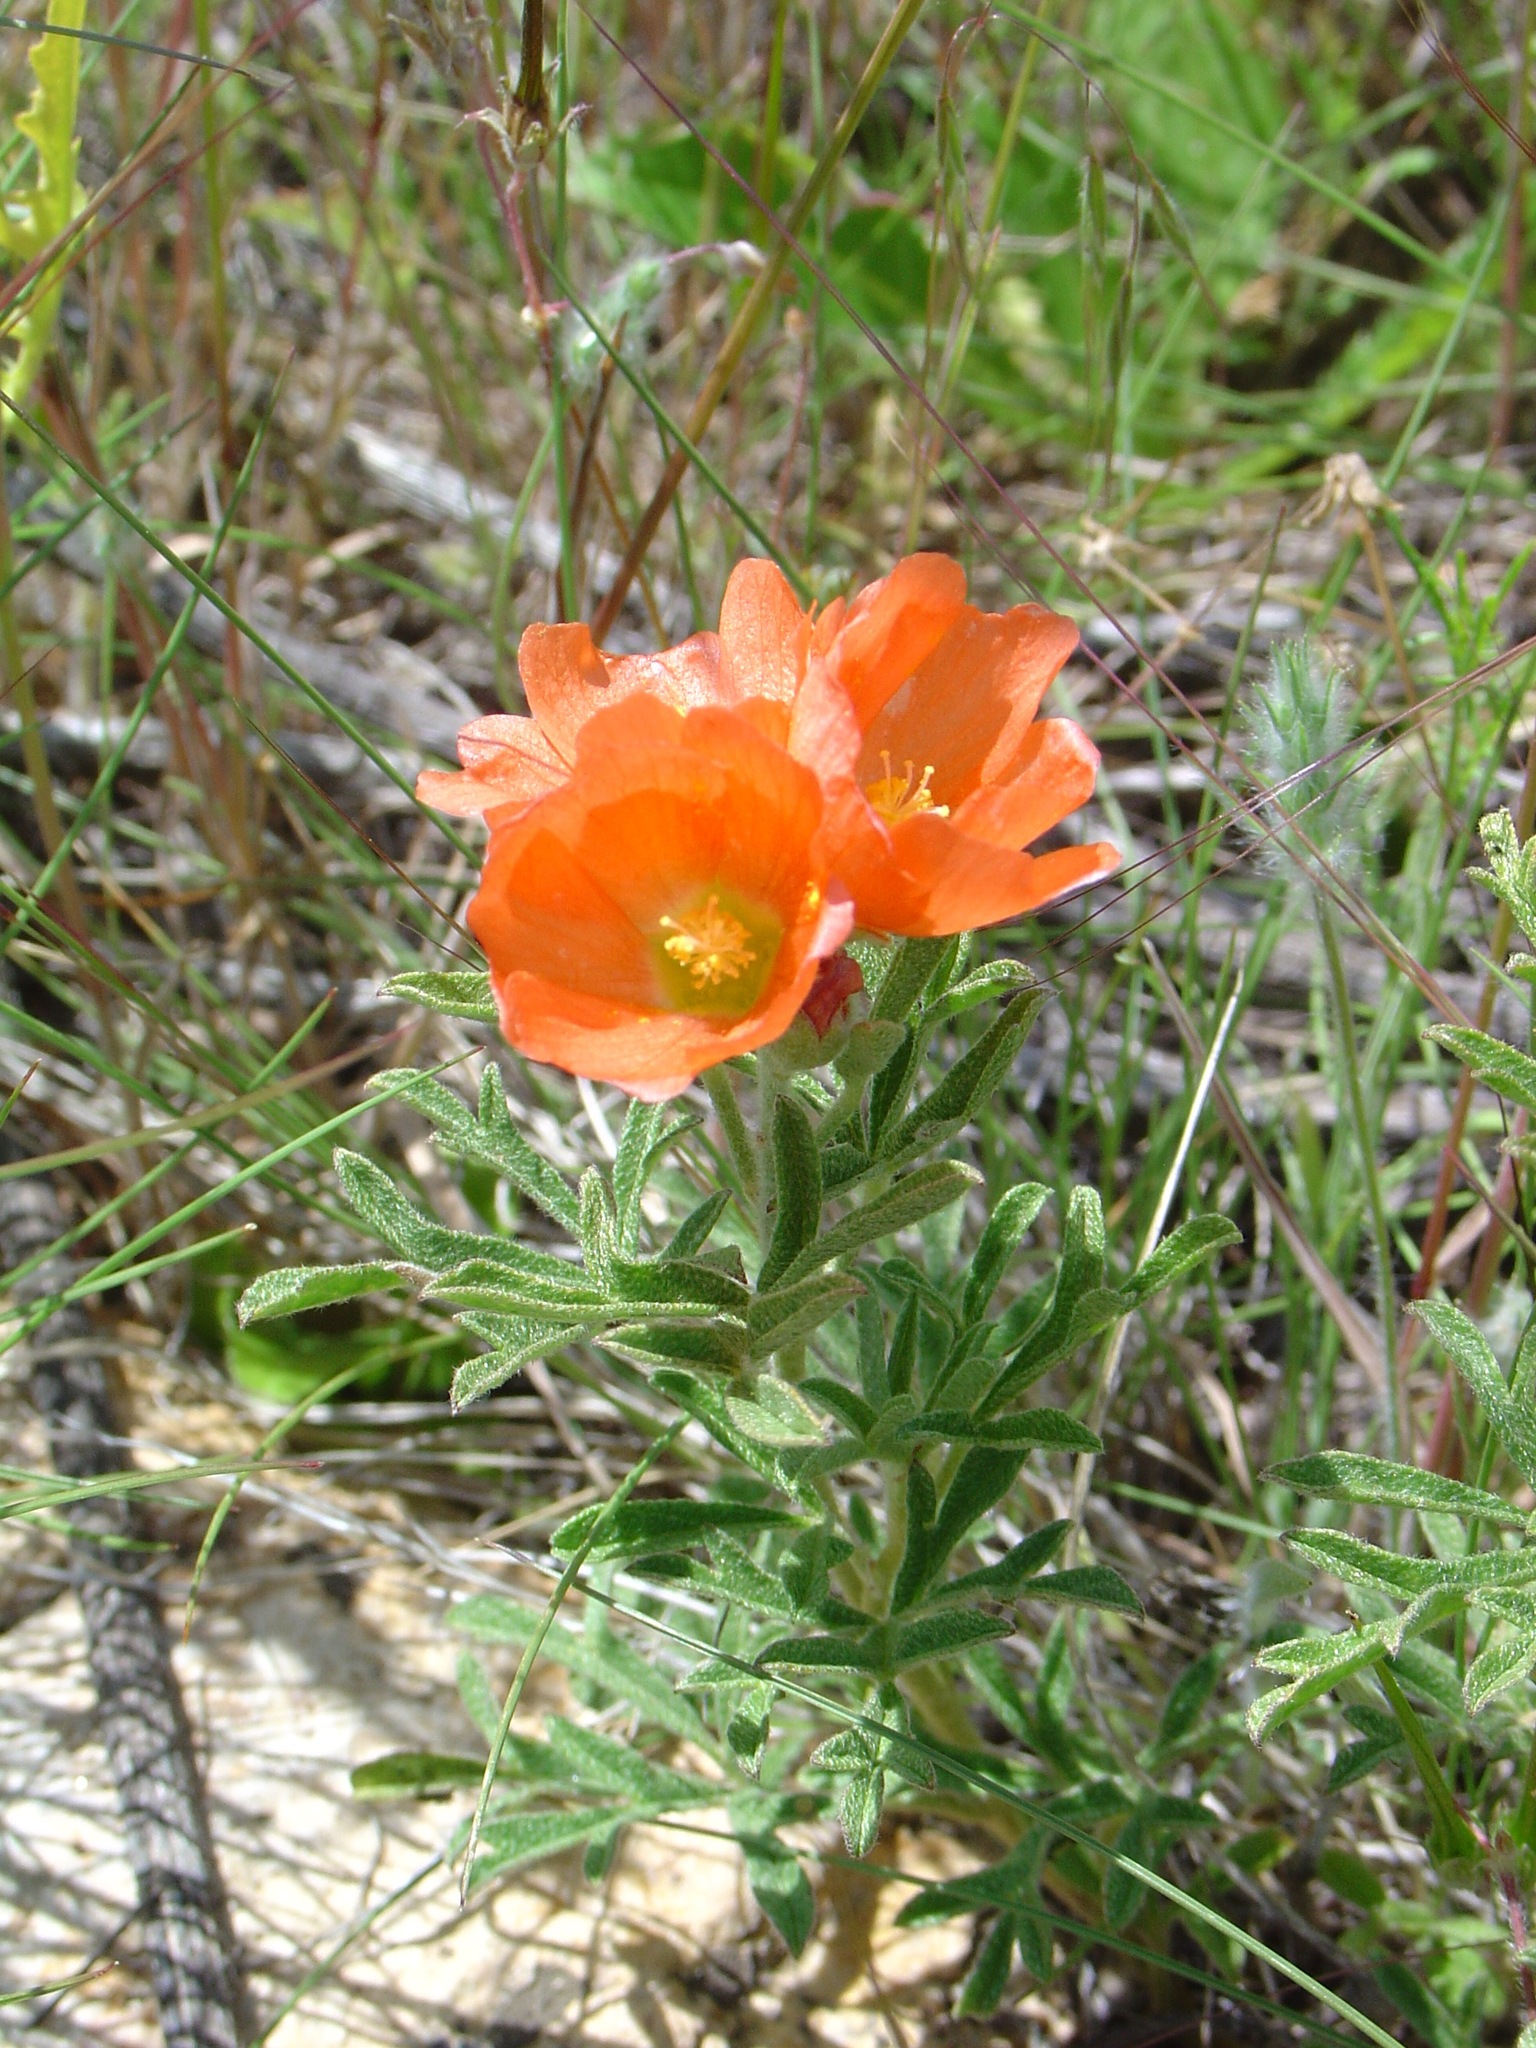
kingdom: Plantae
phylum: Tracheophyta
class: Magnoliopsida
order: Malvales
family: Malvaceae
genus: Sphaeralcea
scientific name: Sphaeralcea coccinea
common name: Moss-rose
